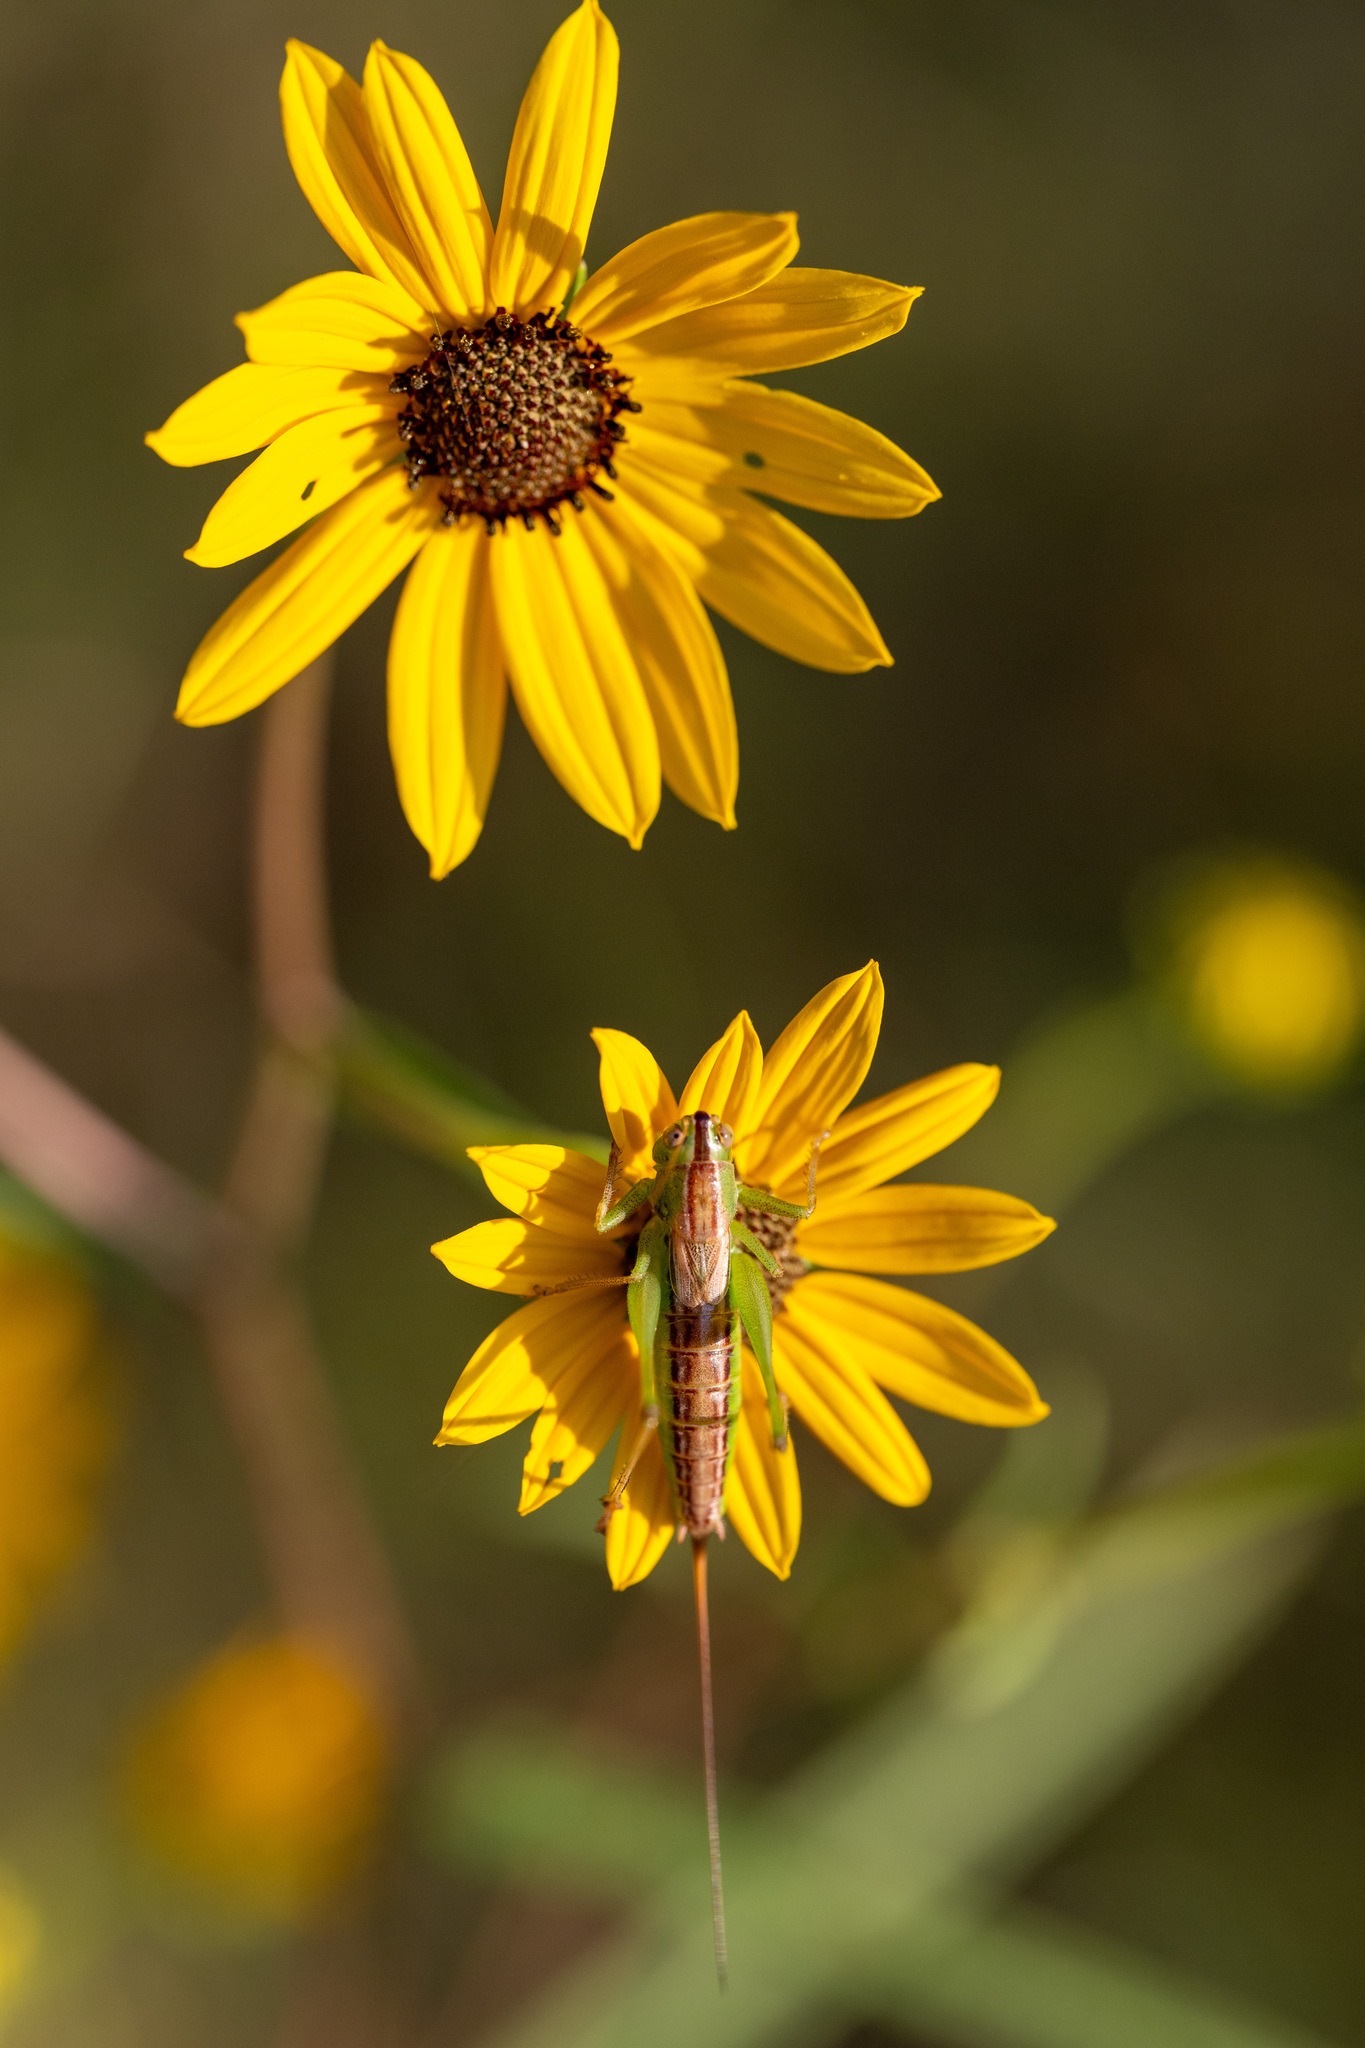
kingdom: Animalia
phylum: Arthropoda
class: Insecta
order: Orthoptera
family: Tettigoniidae
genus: Conocephalus
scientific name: Conocephalus strictus
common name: Straight-lanced katydid
